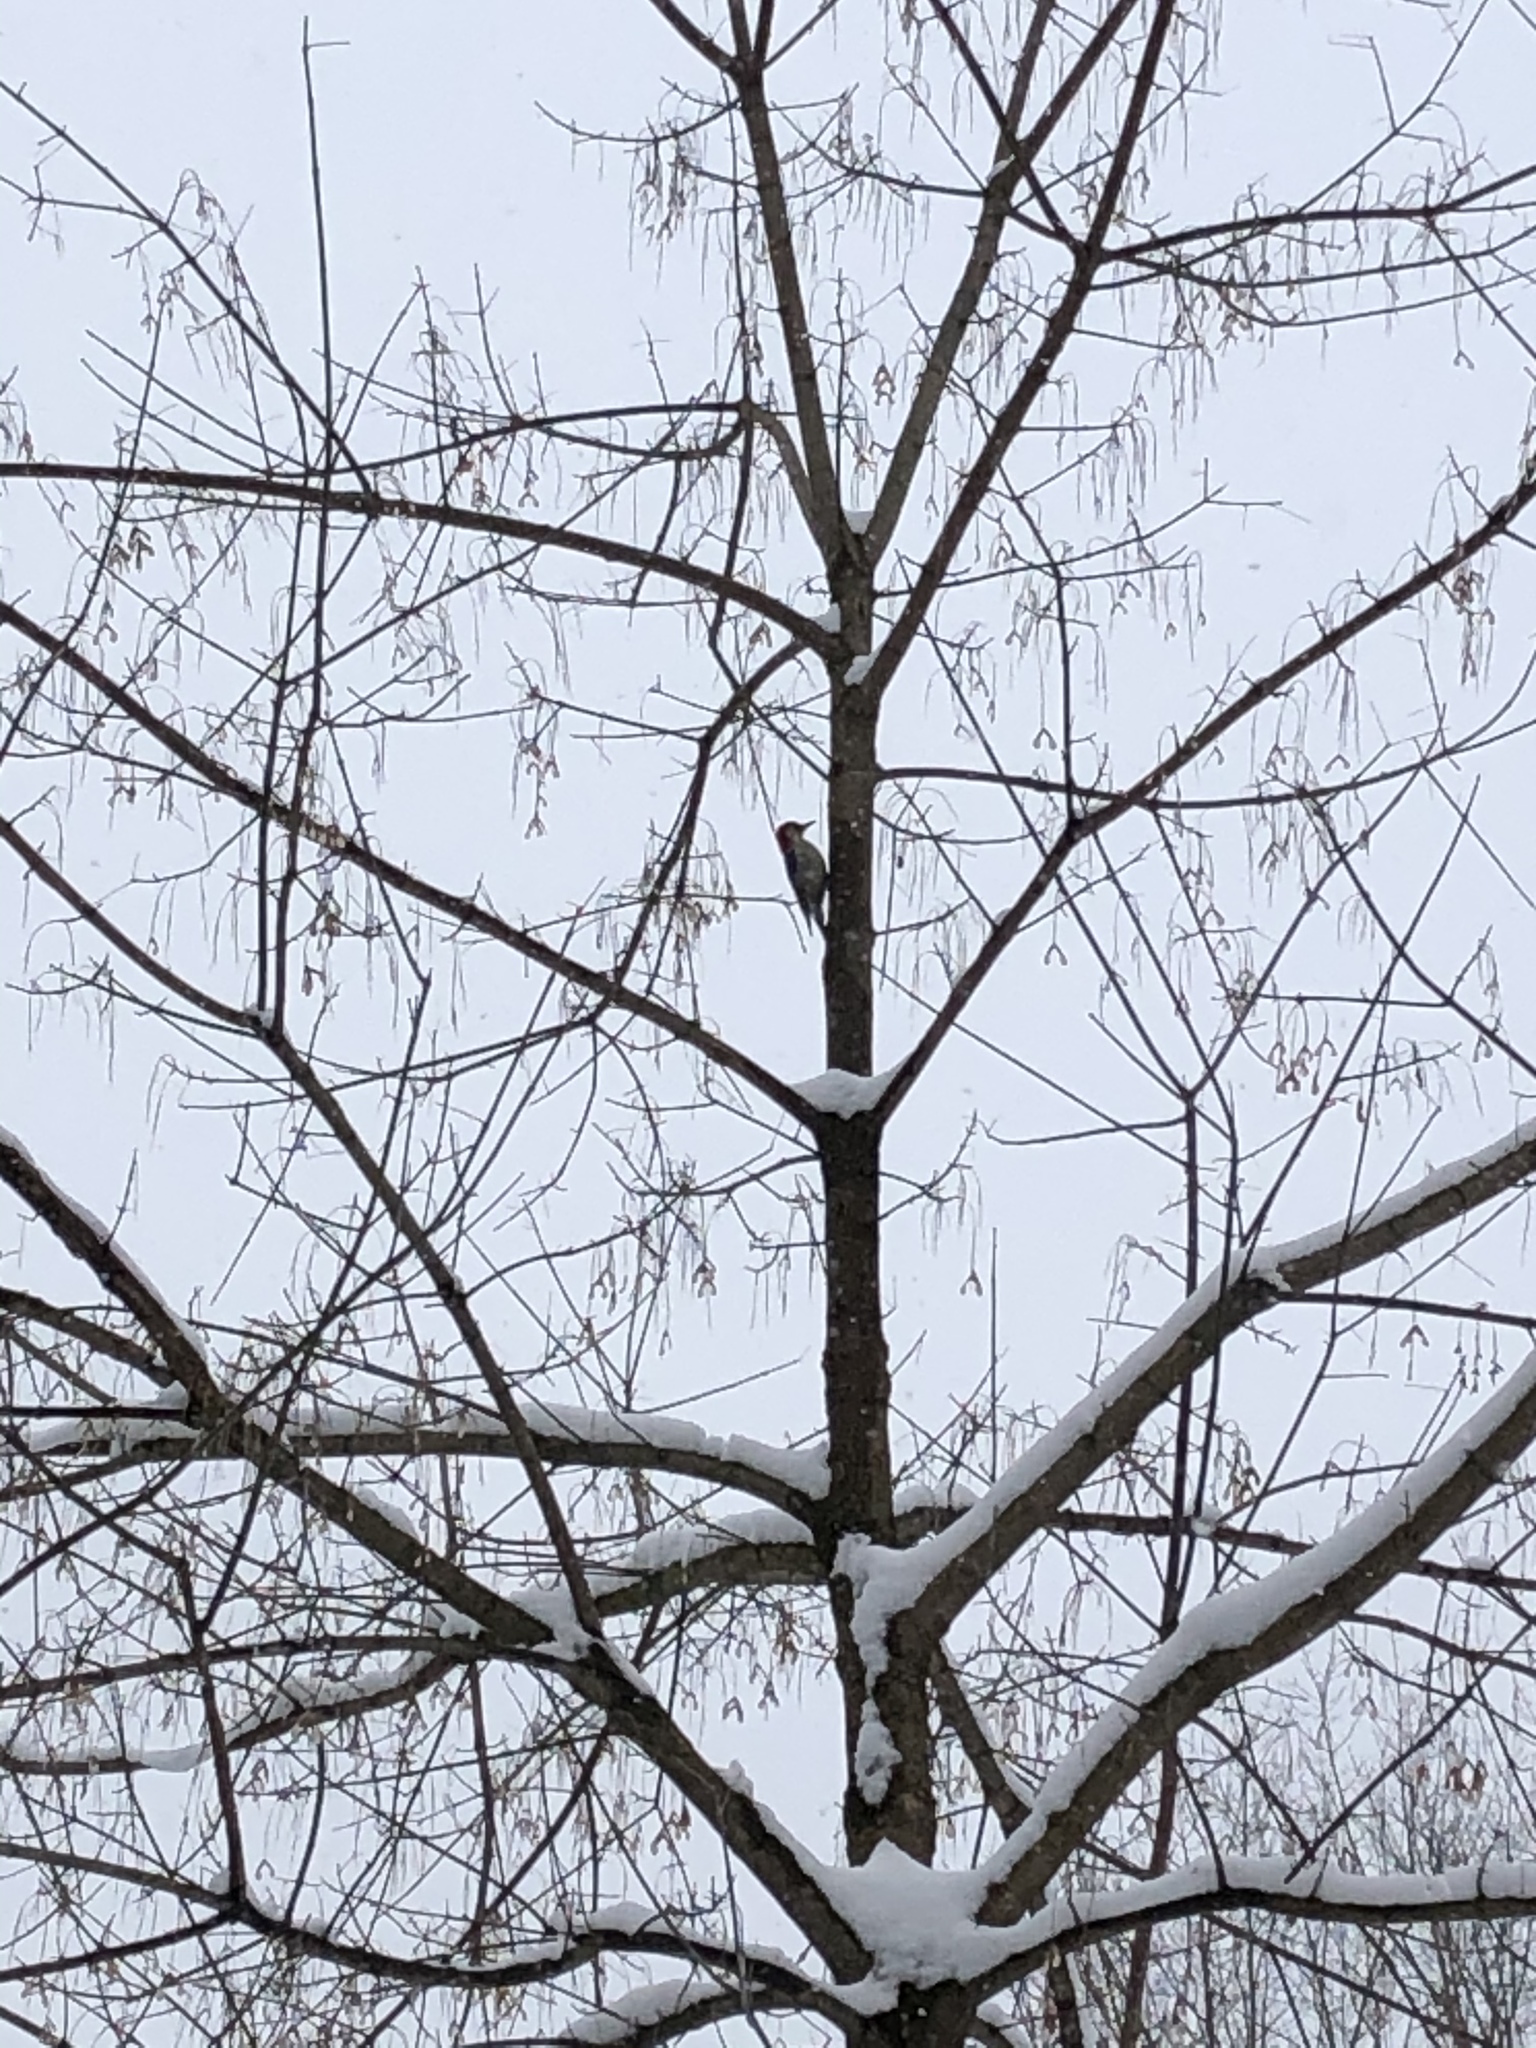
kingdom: Animalia
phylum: Chordata
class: Aves
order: Piciformes
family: Picidae
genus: Melanerpes
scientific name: Melanerpes carolinus
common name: Red-bellied woodpecker
